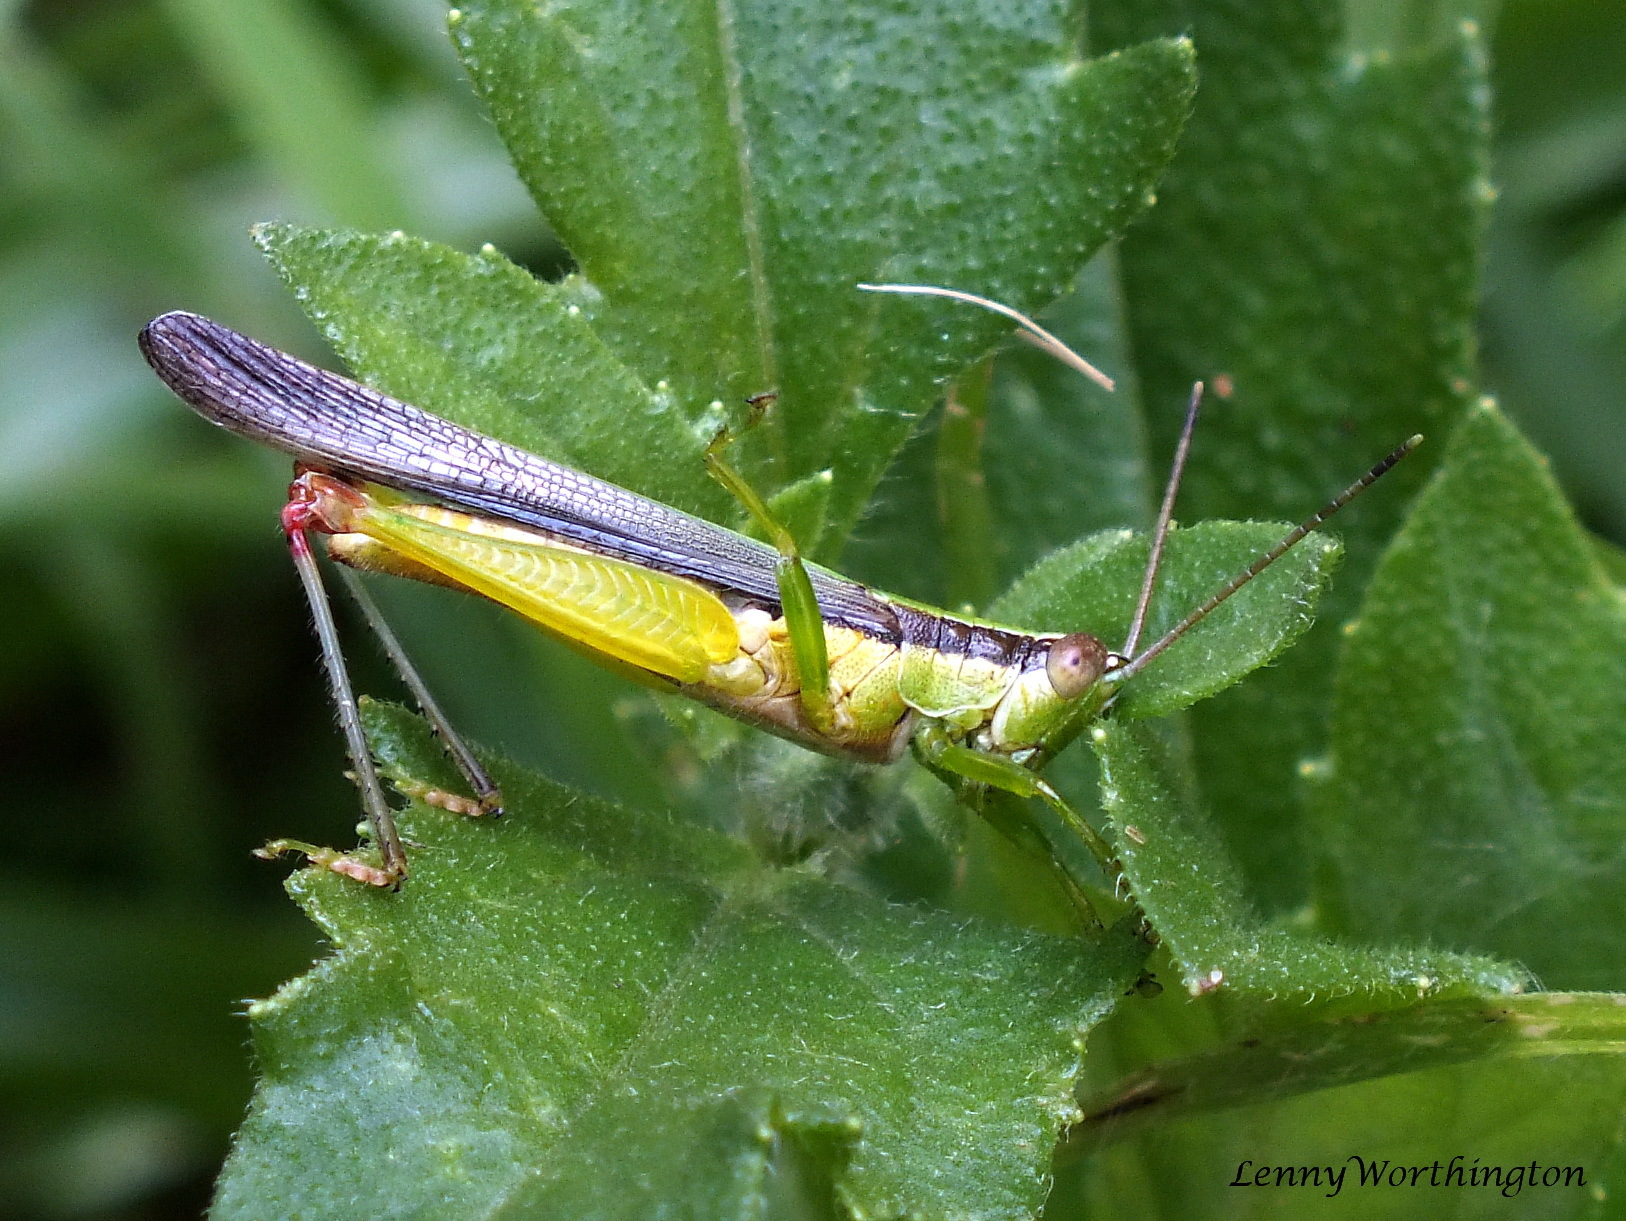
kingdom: Animalia
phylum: Arthropoda
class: Insecta
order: Orthoptera
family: Acrididae
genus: Gesonula
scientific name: Gesonula mundata
